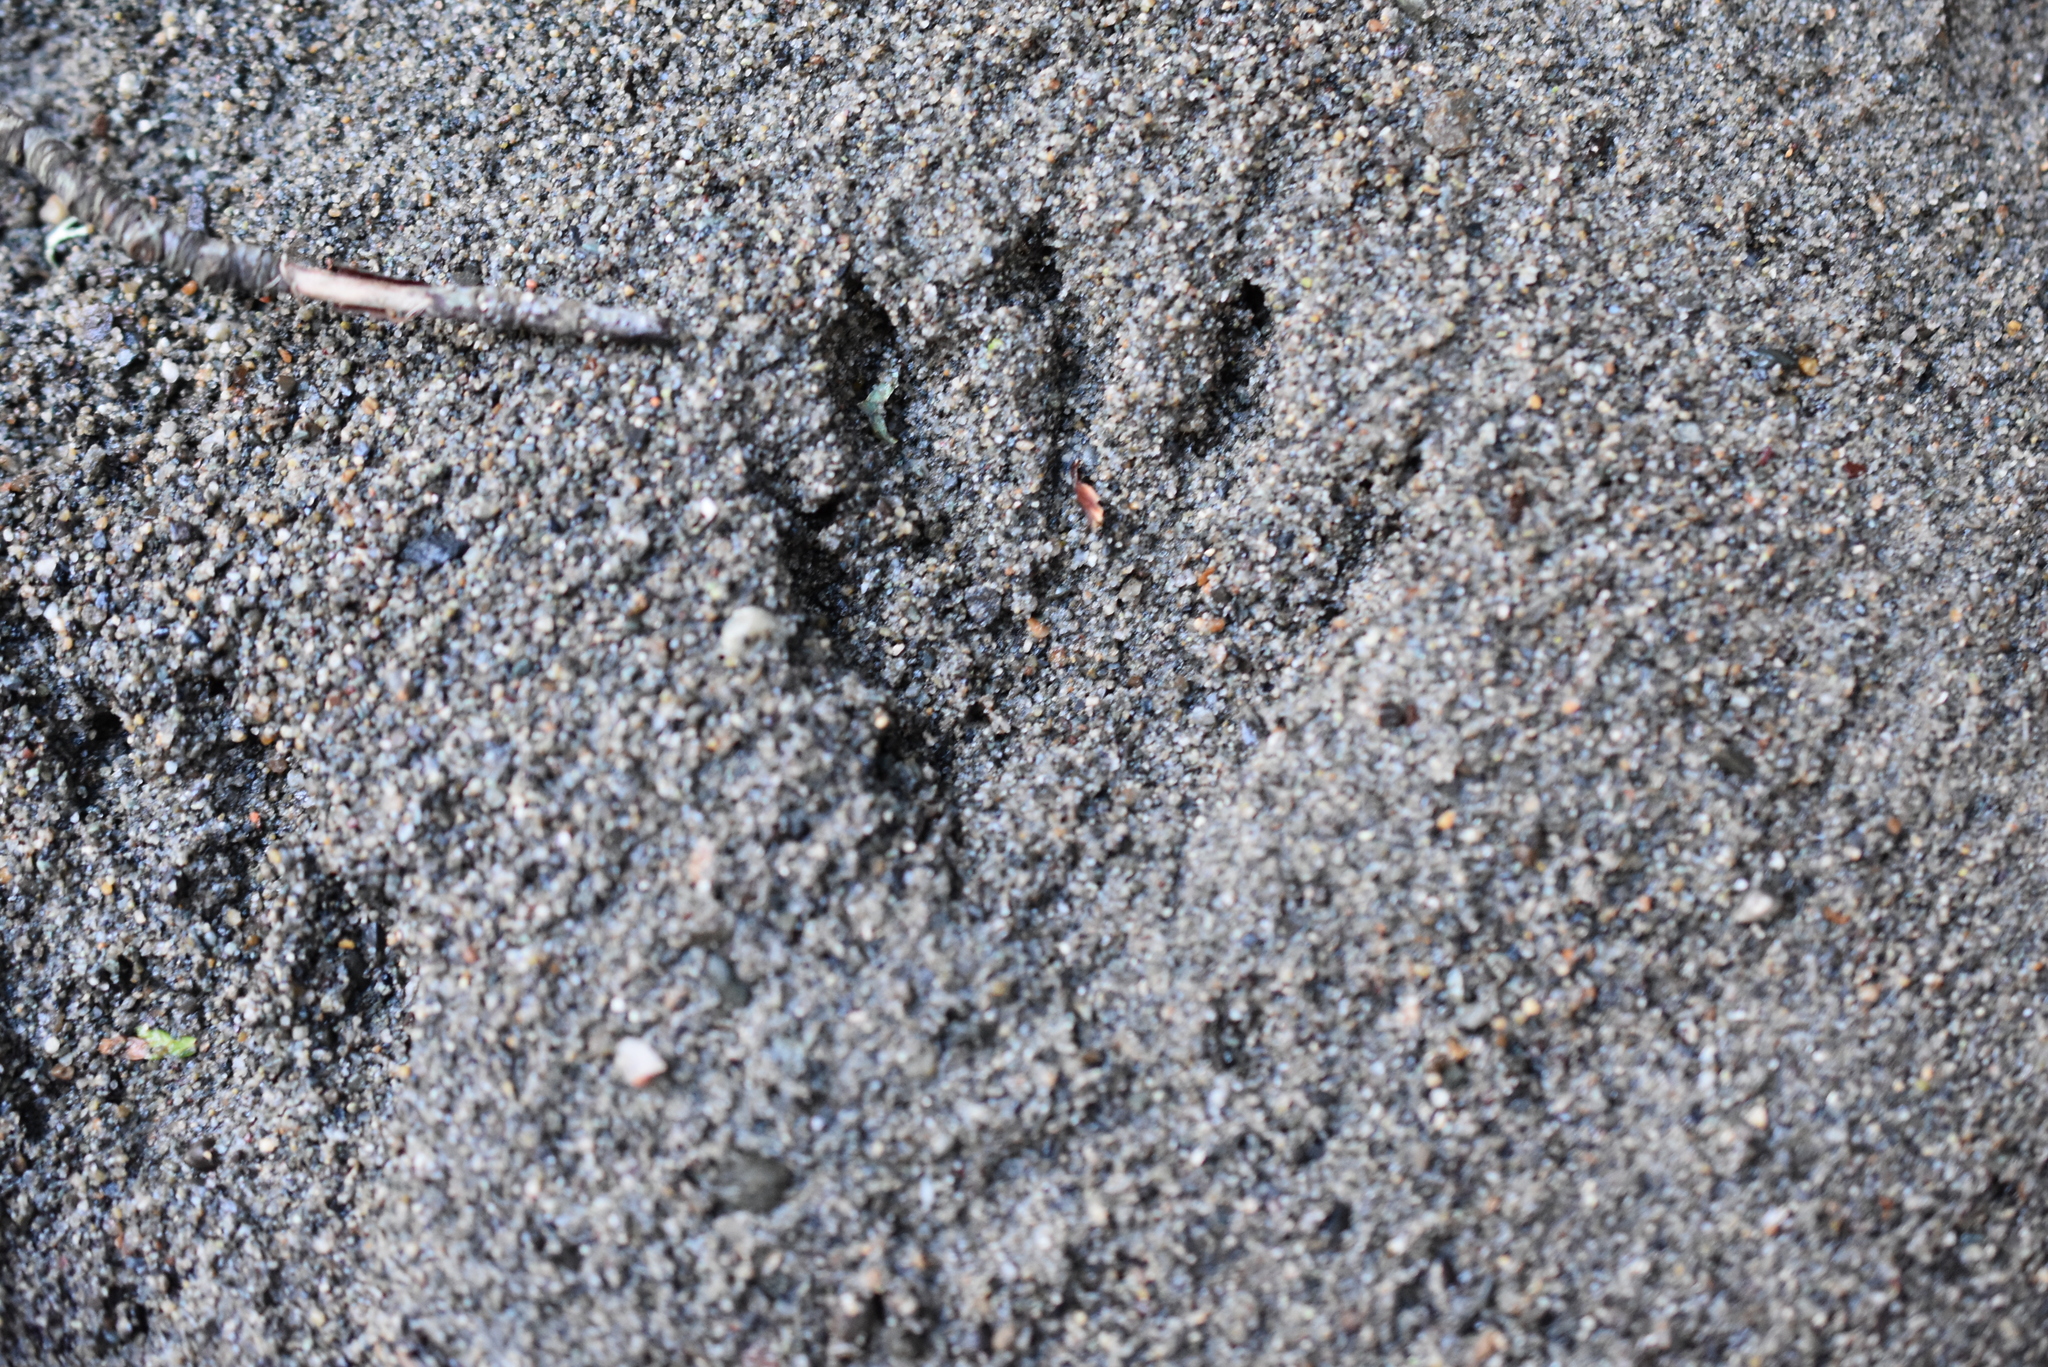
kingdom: Animalia
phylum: Chordata
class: Mammalia
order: Carnivora
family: Procyonidae
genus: Procyon
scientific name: Procyon lotor
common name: Raccoon
